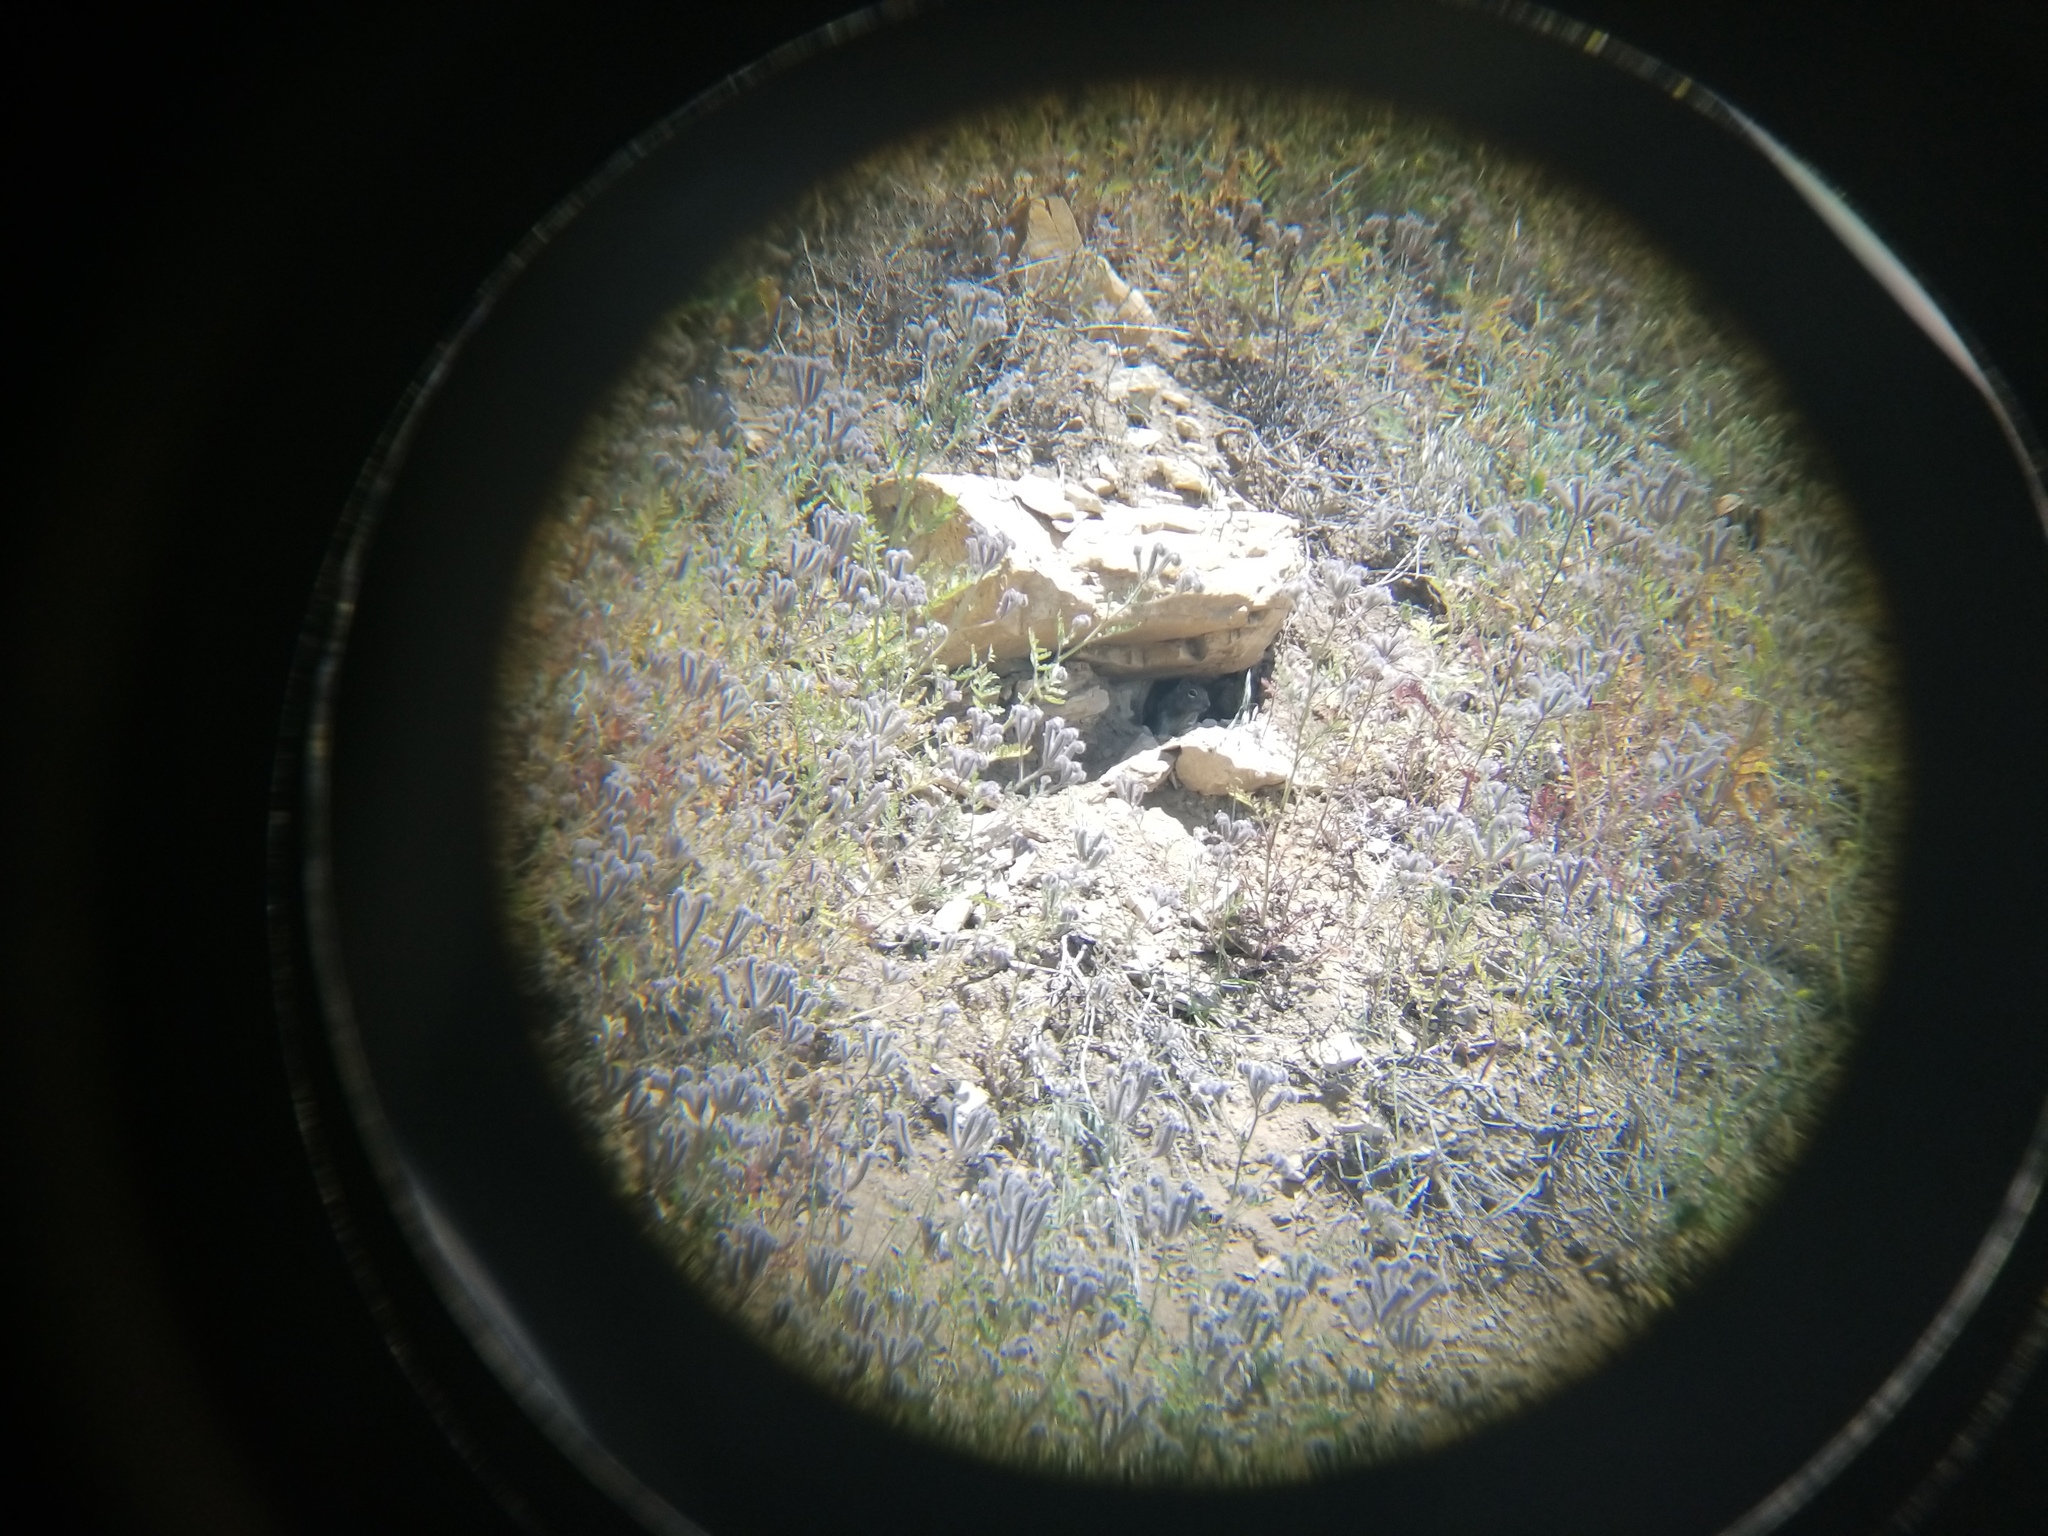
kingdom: Animalia
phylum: Chordata
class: Mammalia
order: Rodentia
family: Sciuridae
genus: Otospermophilus
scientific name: Otospermophilus beecheyi
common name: California ground squirrel
